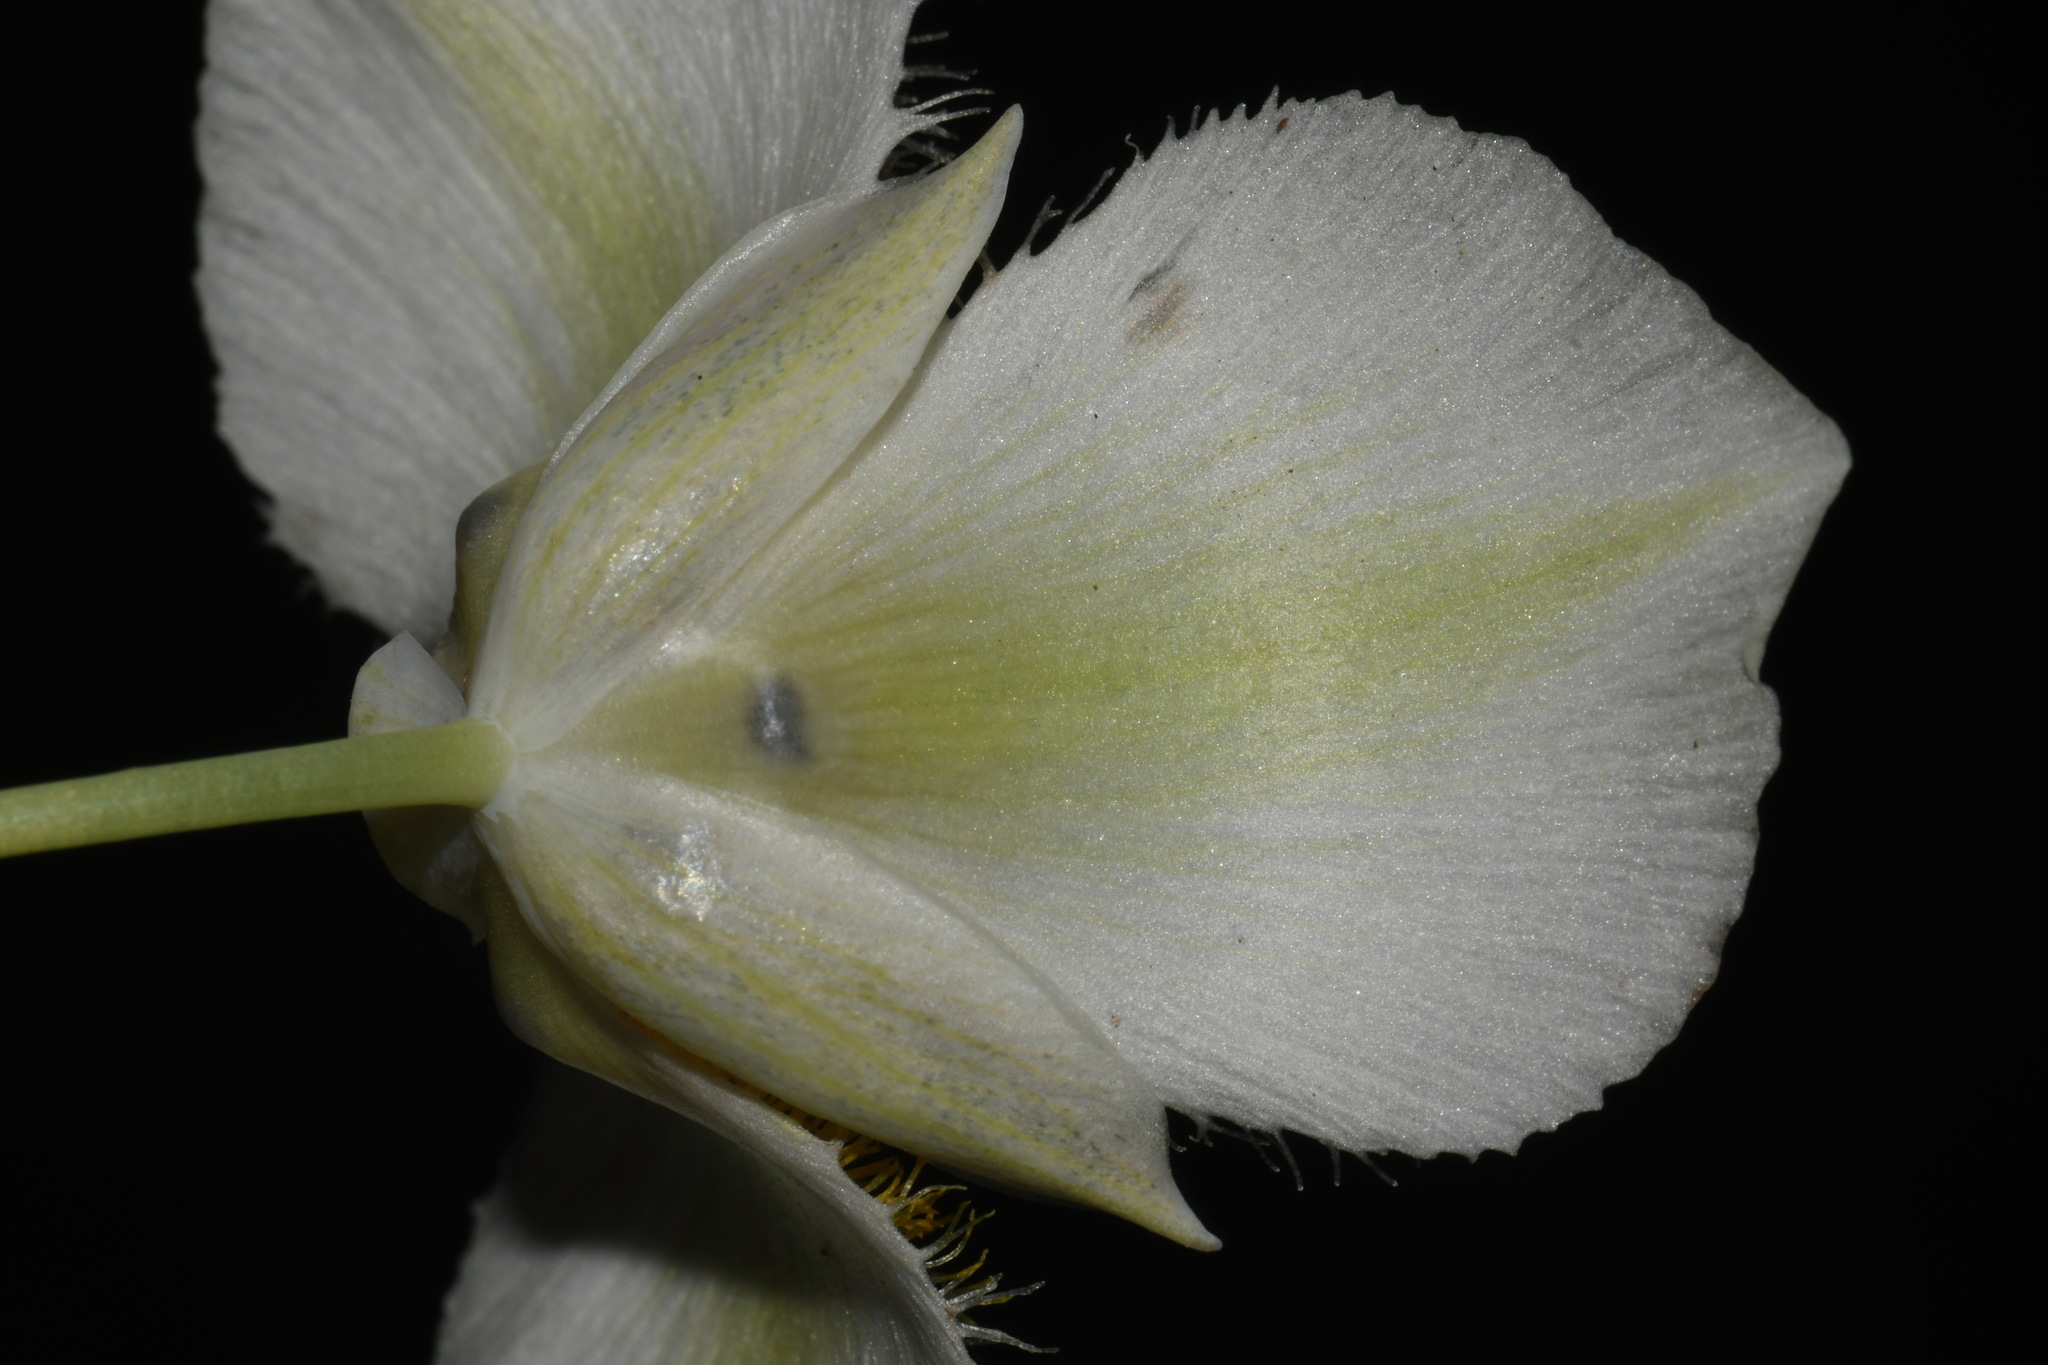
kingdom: Plantae
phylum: Tracheophyta
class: Liliopsida
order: Liliales
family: Liliaceae
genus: Calochortus
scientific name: Calochortus apiculatus
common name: Baker's mariposa lily
